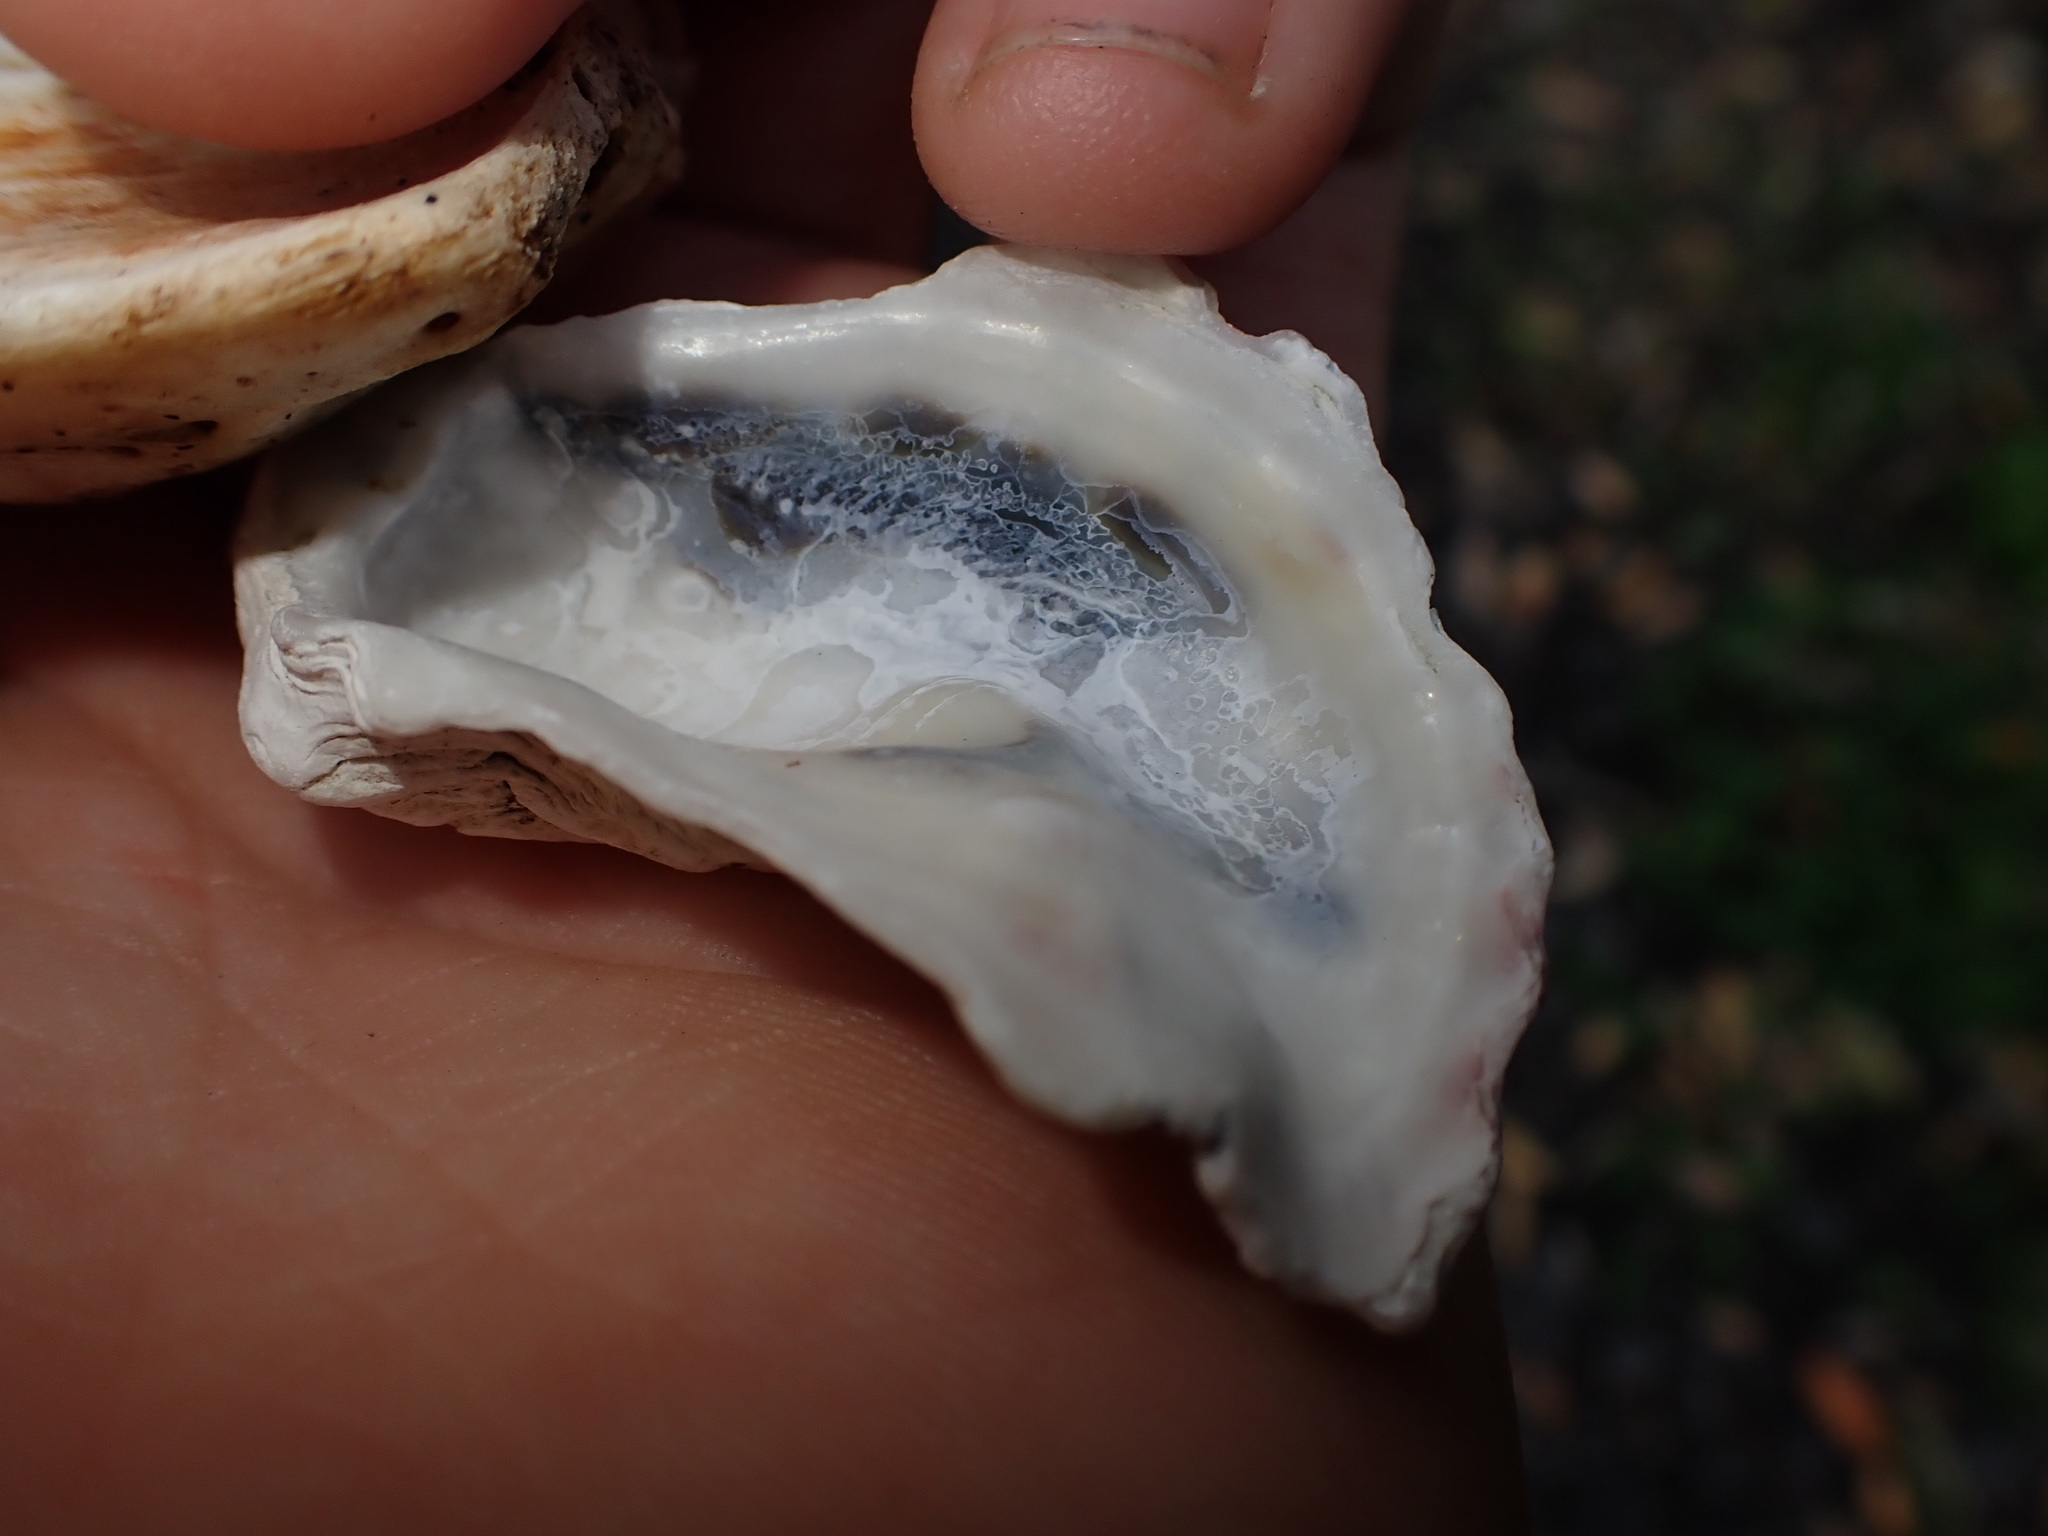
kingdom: Animalia
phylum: Mollusca
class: Bivalvia
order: Ostreida
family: Ostreidae
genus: Saccostrea
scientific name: Saccostrea glomerata
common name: Sydney cupped oyster
